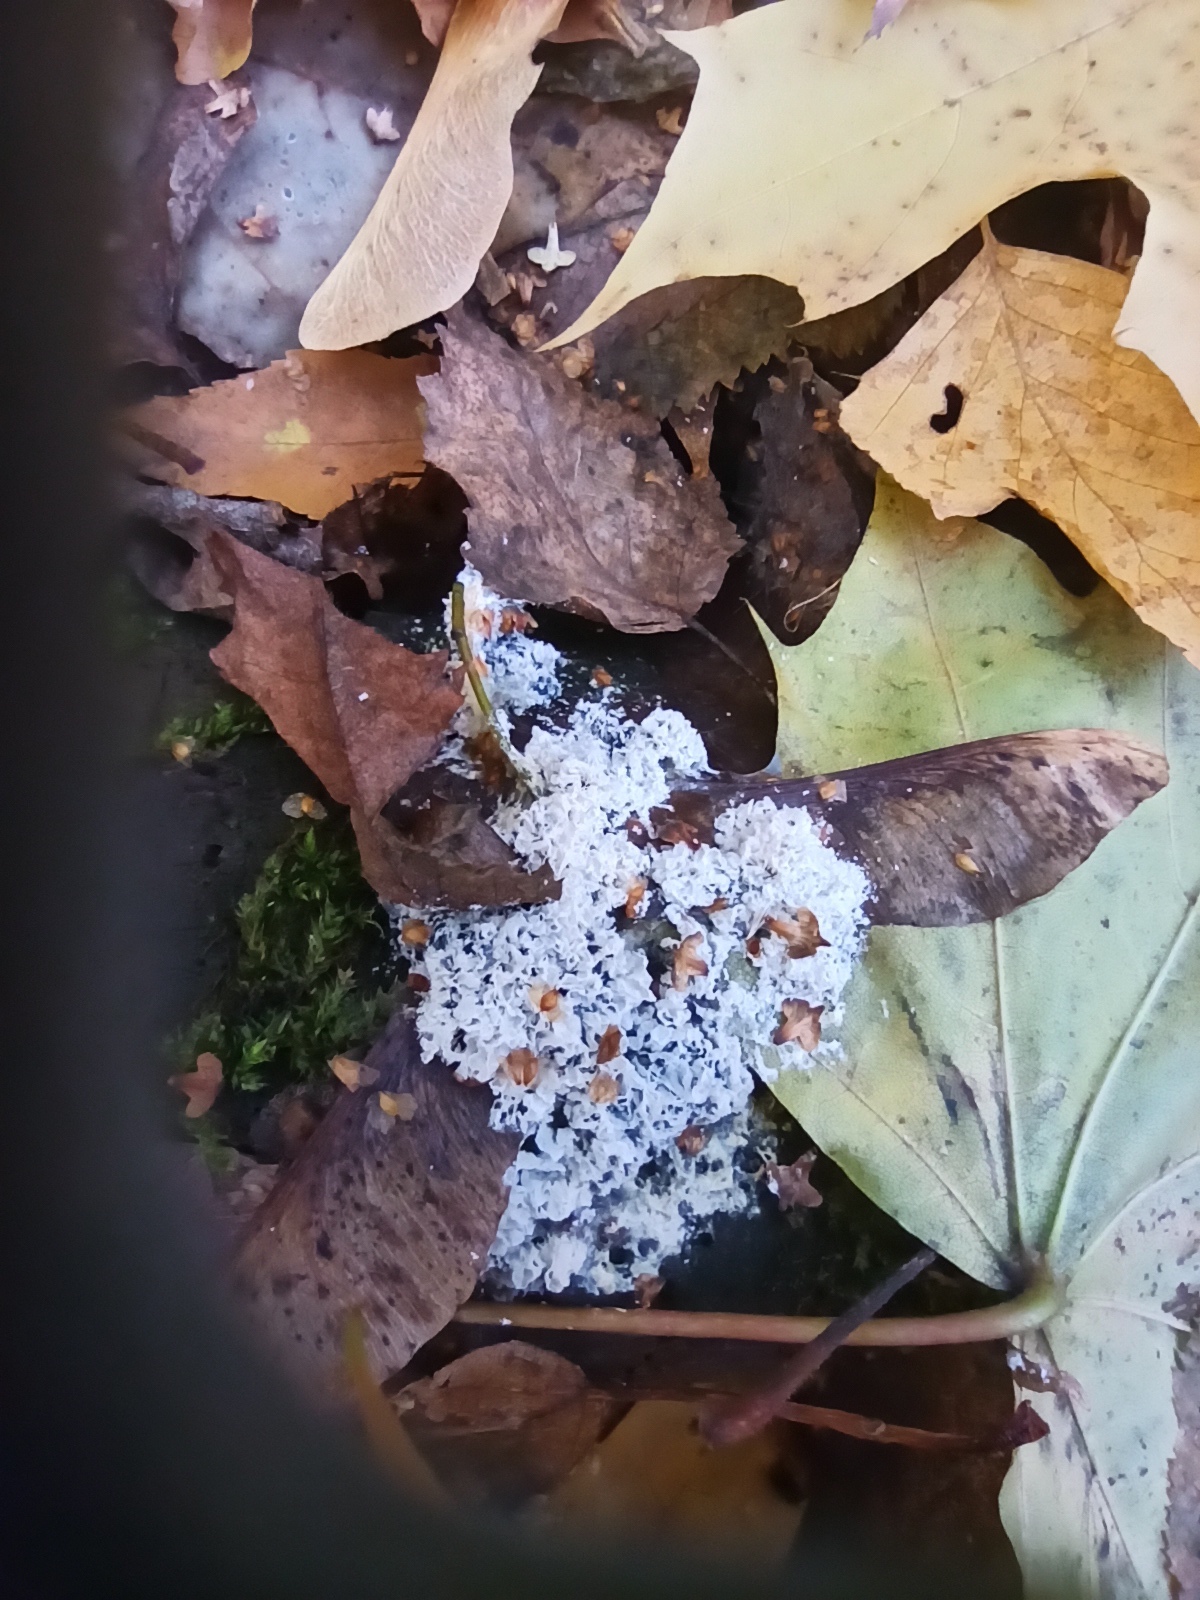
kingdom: Protozoa
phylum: Mycetozoa
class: Myxomycetes
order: Physarales
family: Physaraceae
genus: Didymium
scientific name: Didymium
